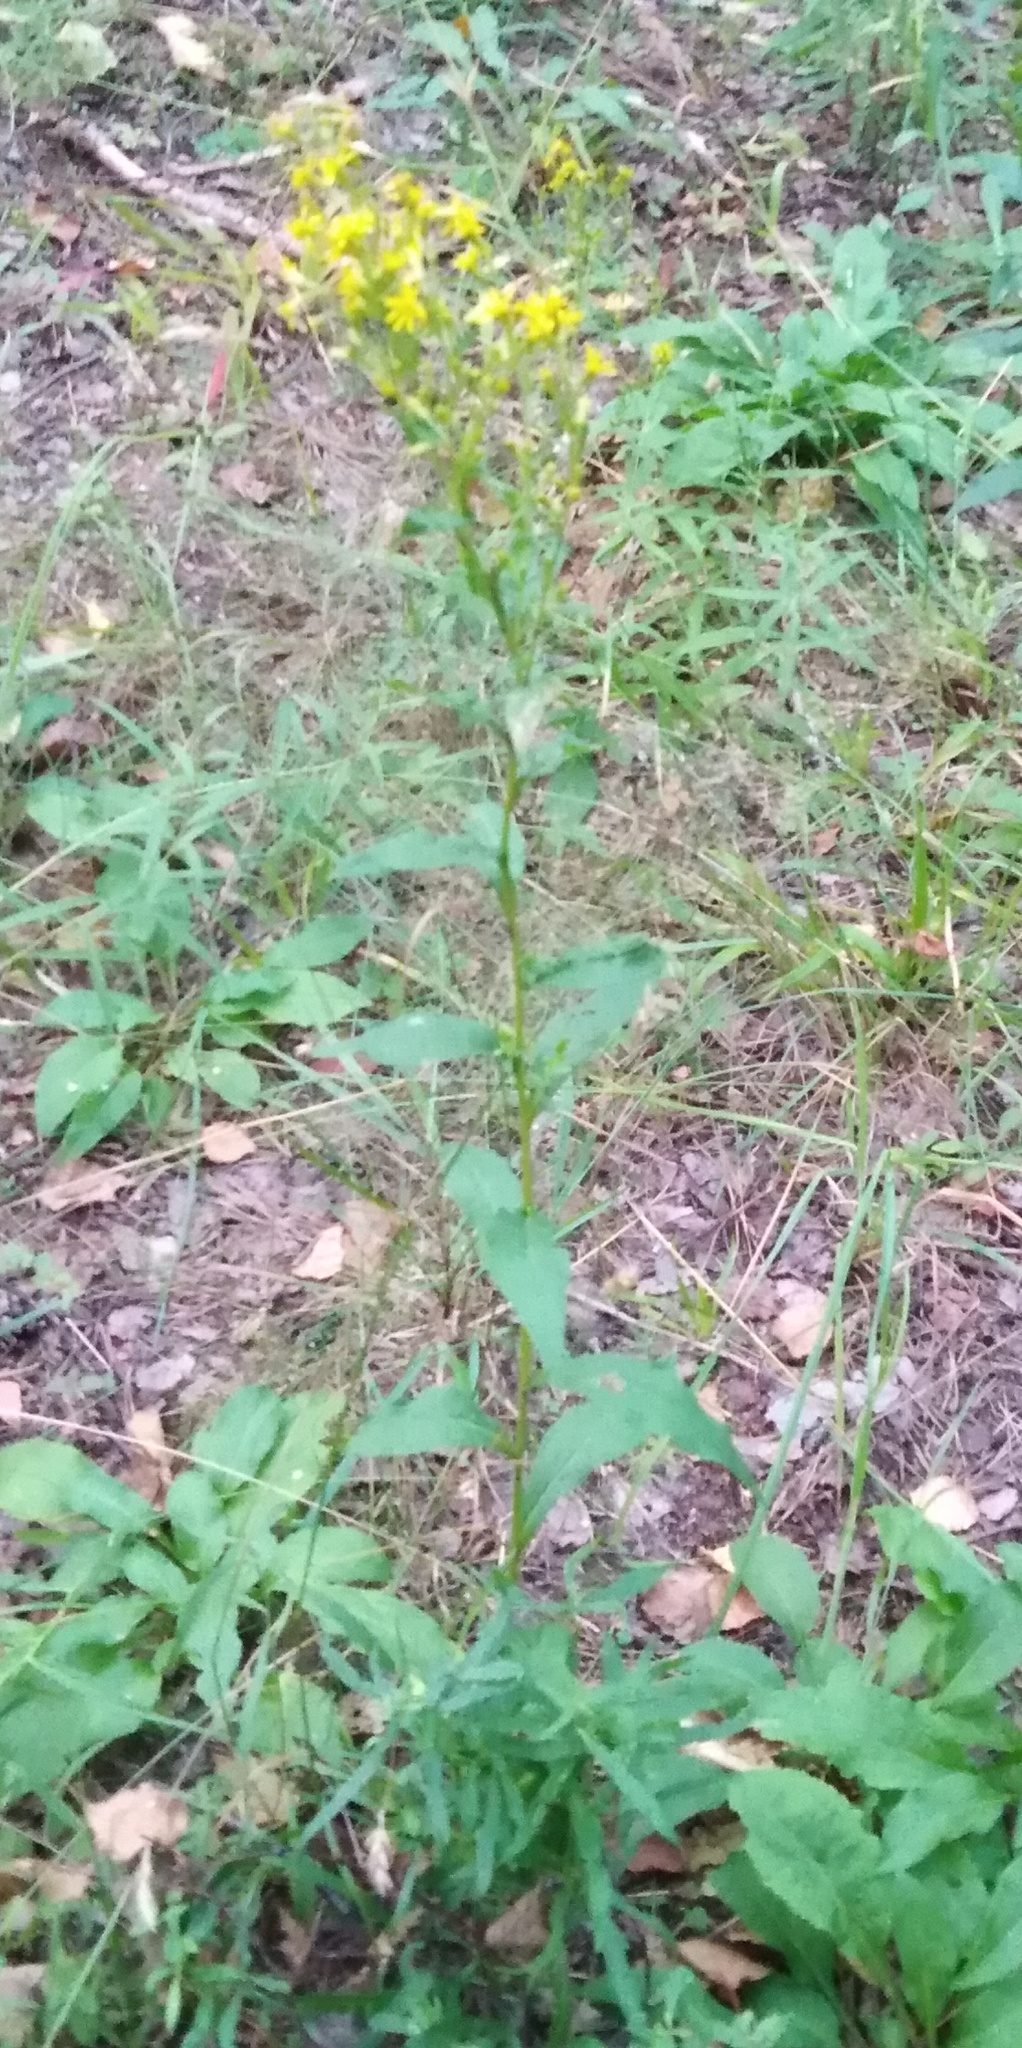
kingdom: Plantae
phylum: Tracheophyta
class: Magnoliopsida
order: Asterales
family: Asteraceae
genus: Solidago
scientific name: Solidago virgaurea
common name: Goldenrod
